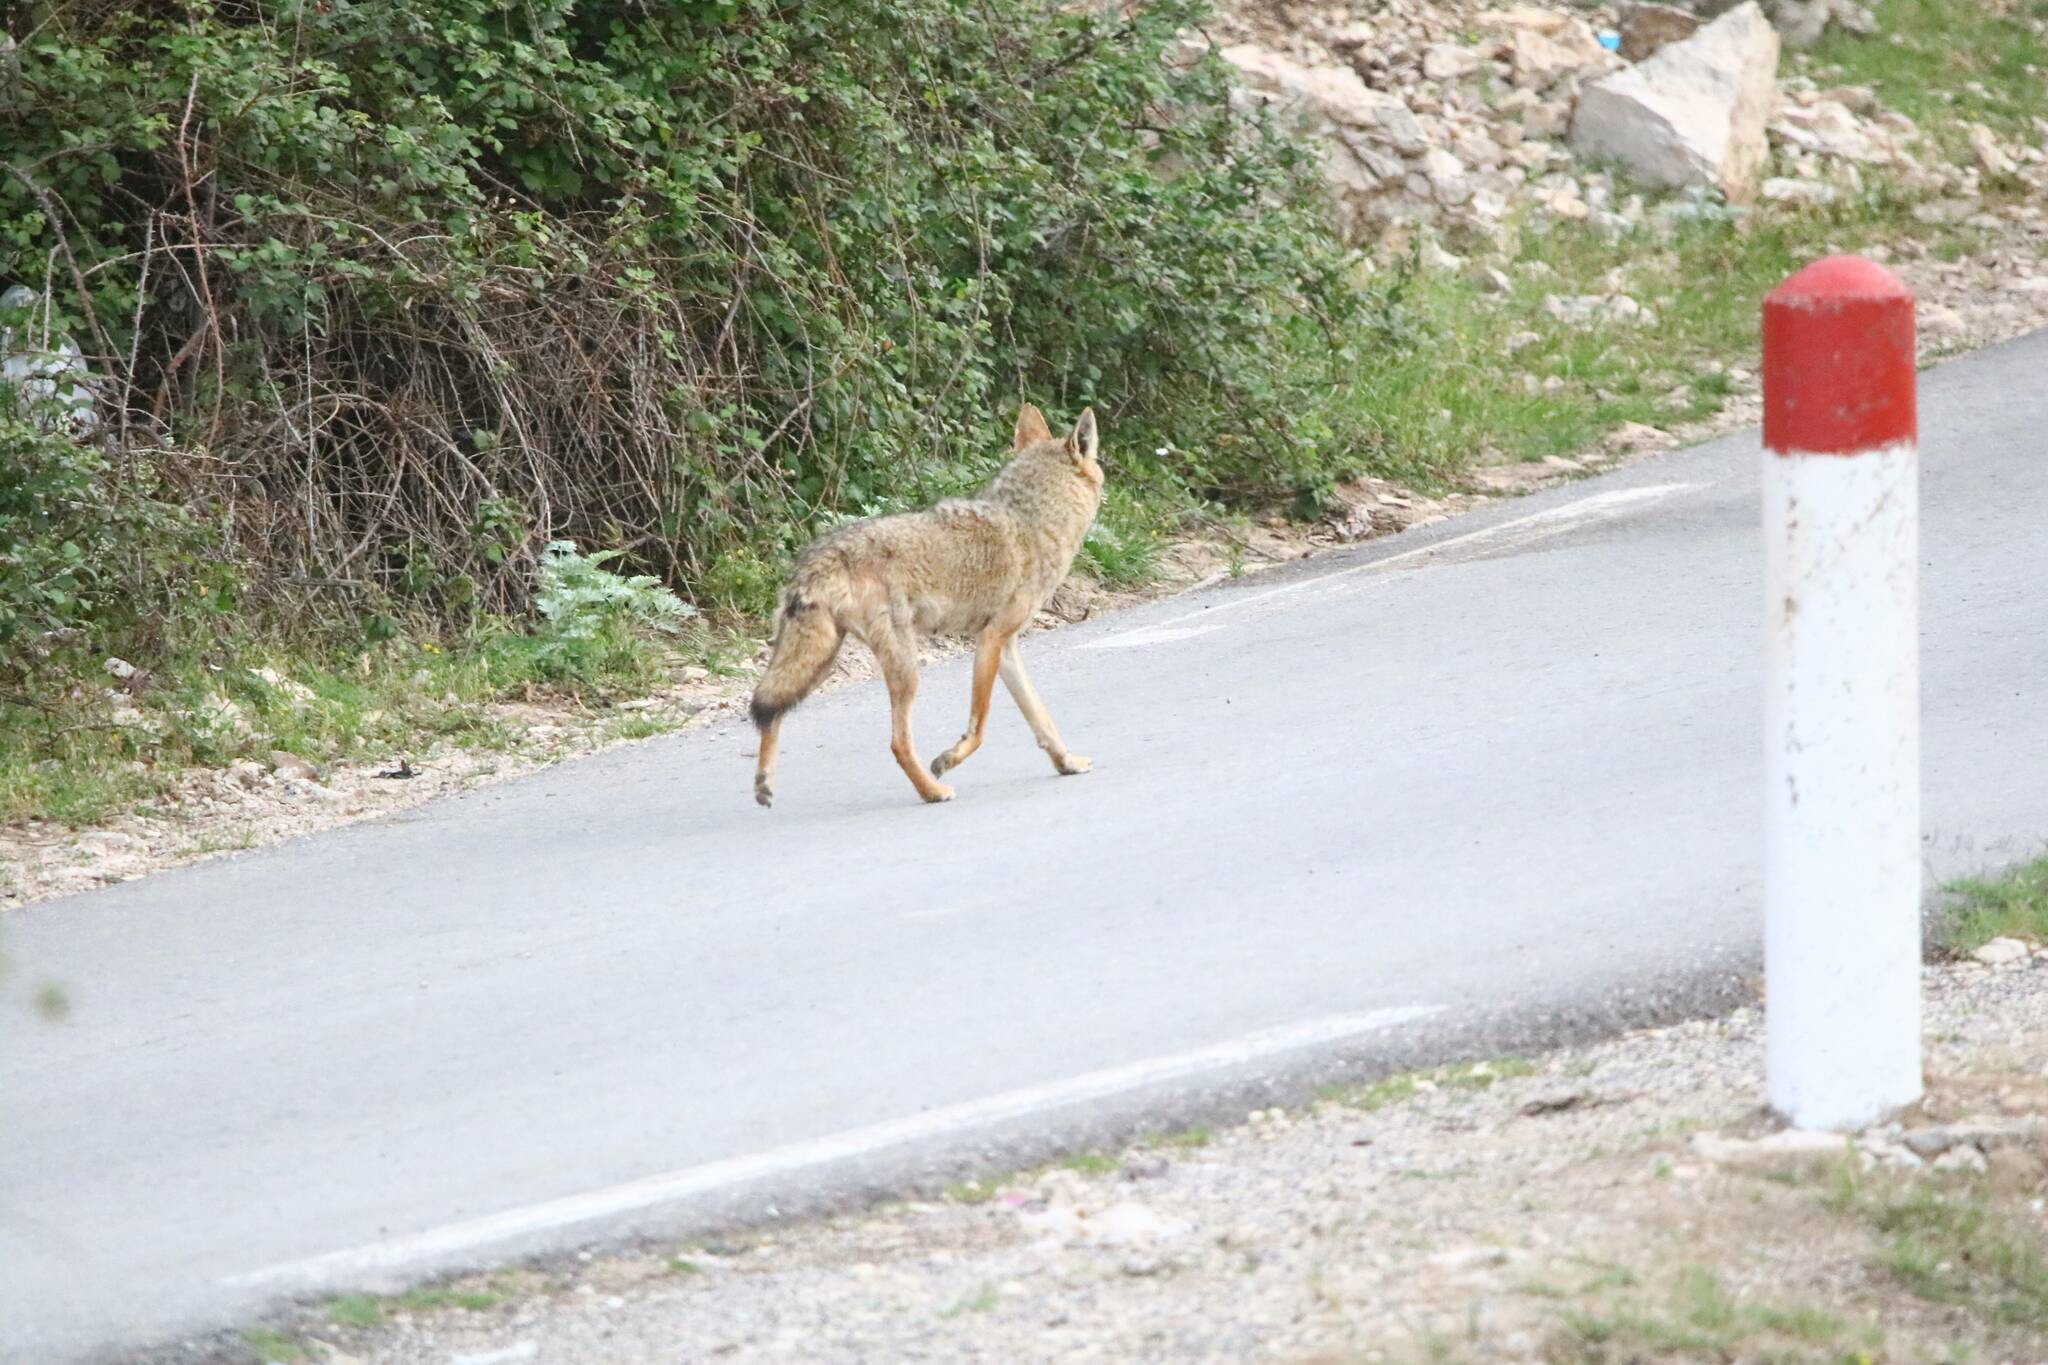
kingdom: Animalia
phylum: Chordata
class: Mammalia
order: Carnivora
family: Canidae
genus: Canis
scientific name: Canis lupaster
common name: African golden wolf
